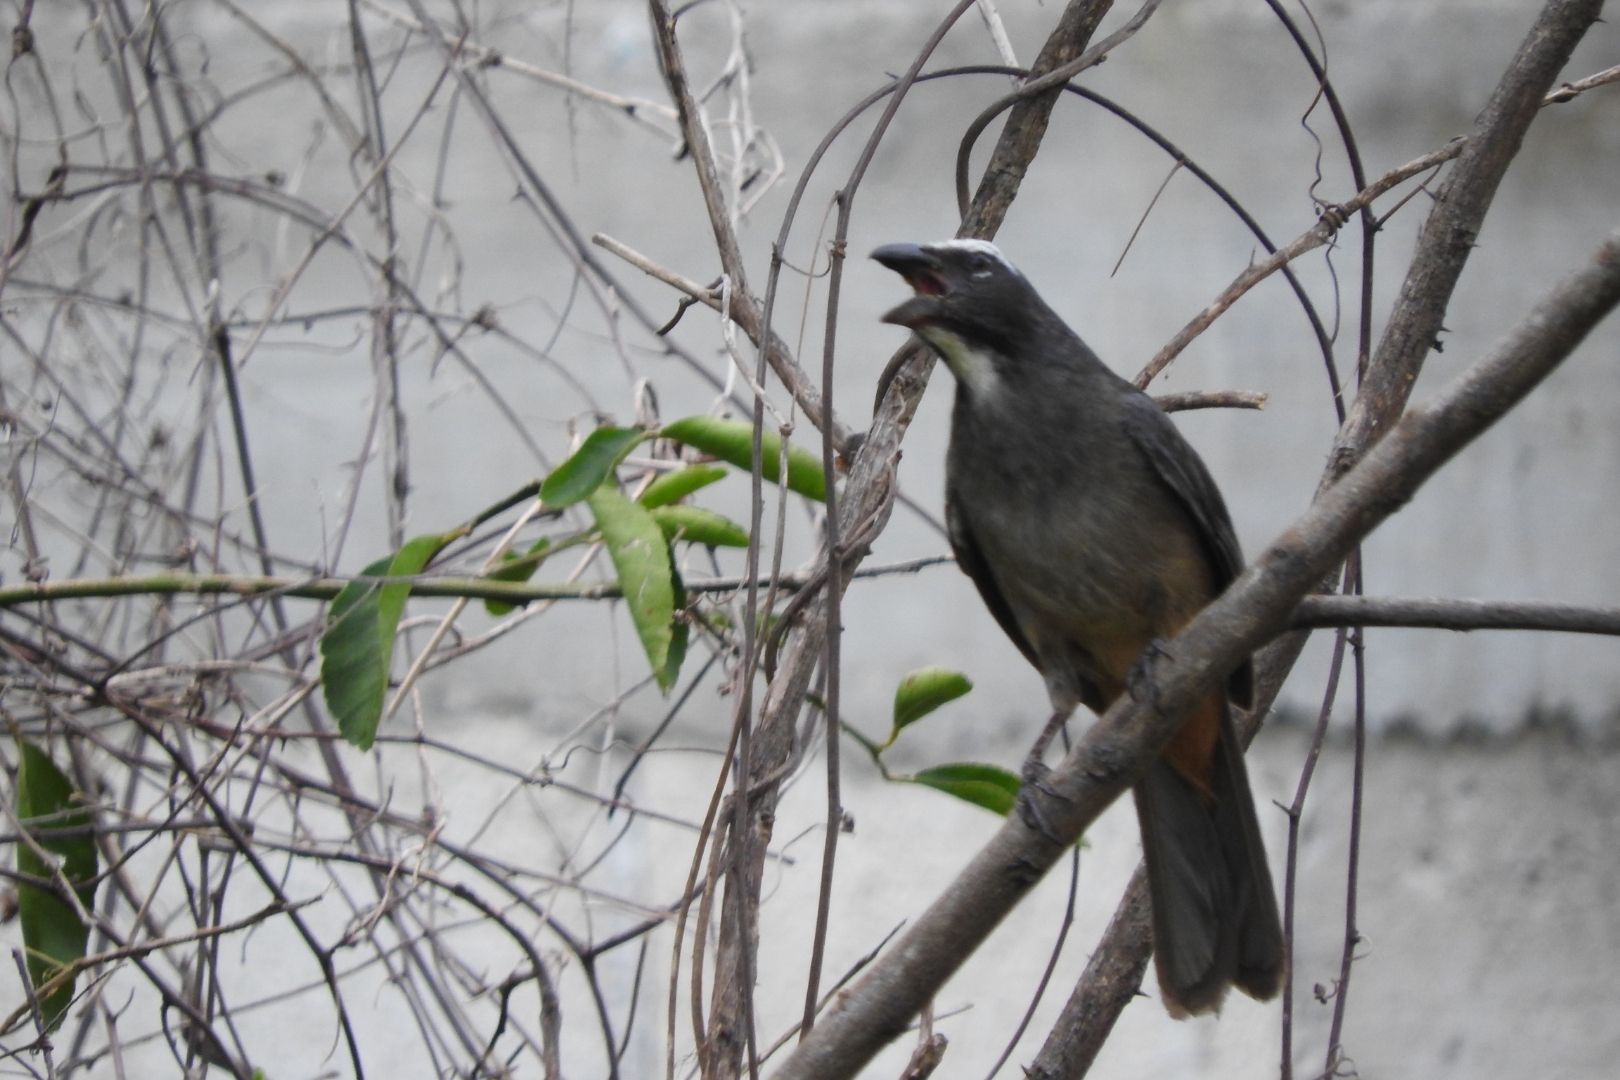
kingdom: Animalia
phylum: Chordata
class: Aves
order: Passeriformes
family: Thraupidae
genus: Saltator
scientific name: Saltator grandis
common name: Cinnamon-bellied saltator
